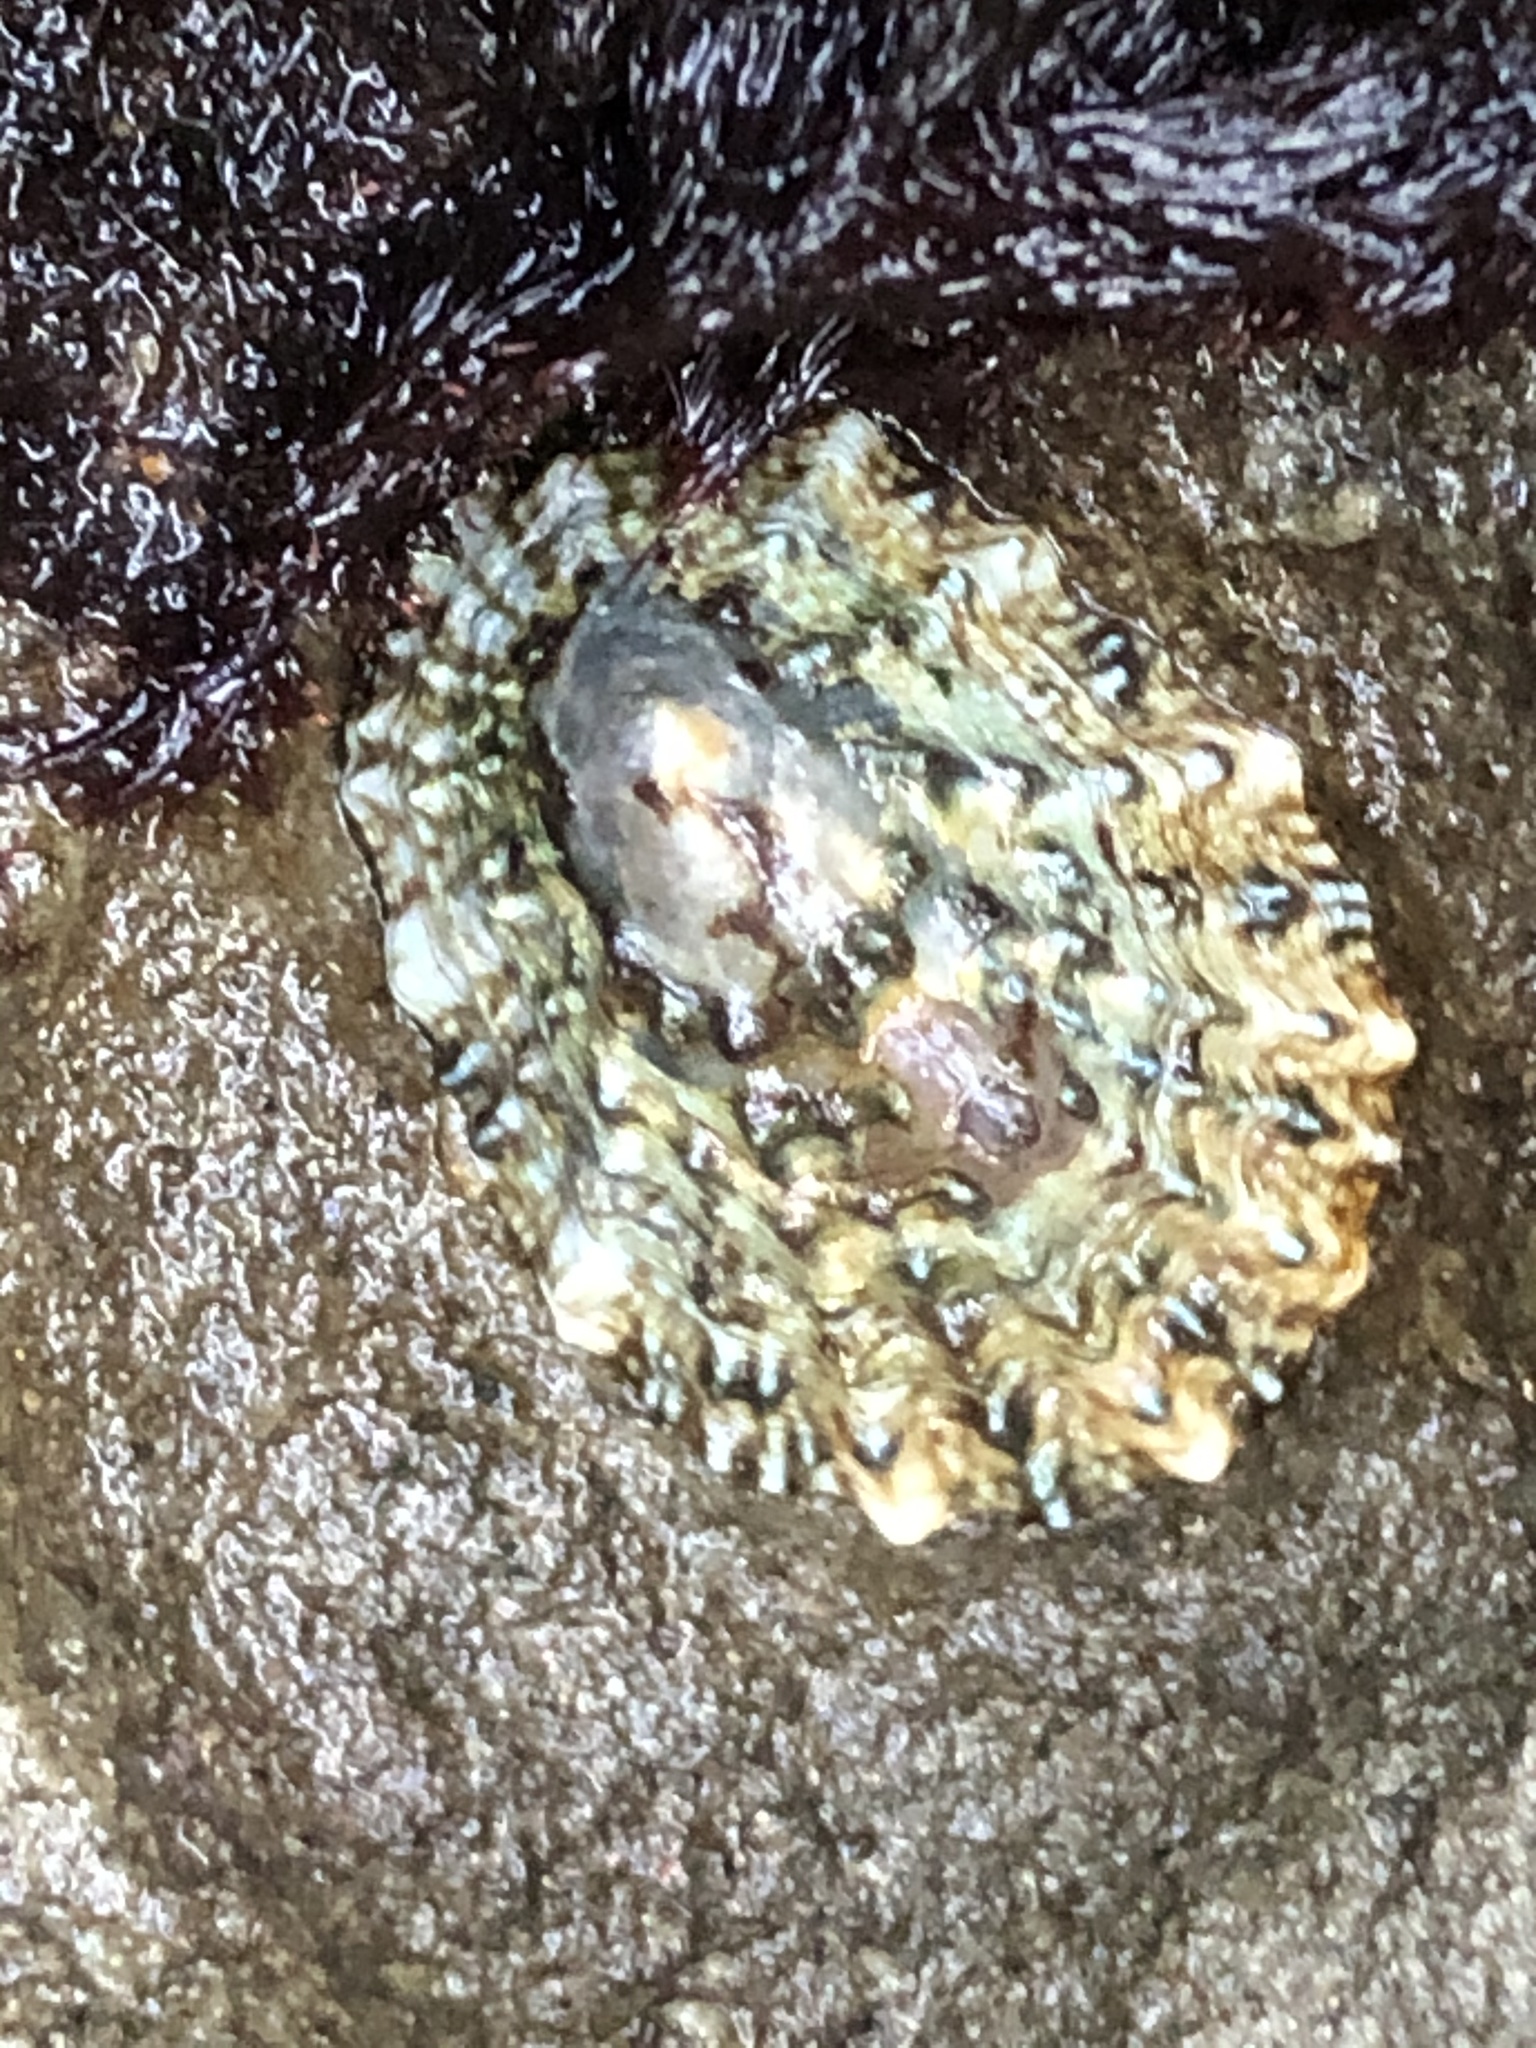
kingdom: Animalia
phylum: Mollusca
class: Gastropoda
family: Lottiidae
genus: Lottia
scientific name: Lottia scabra
